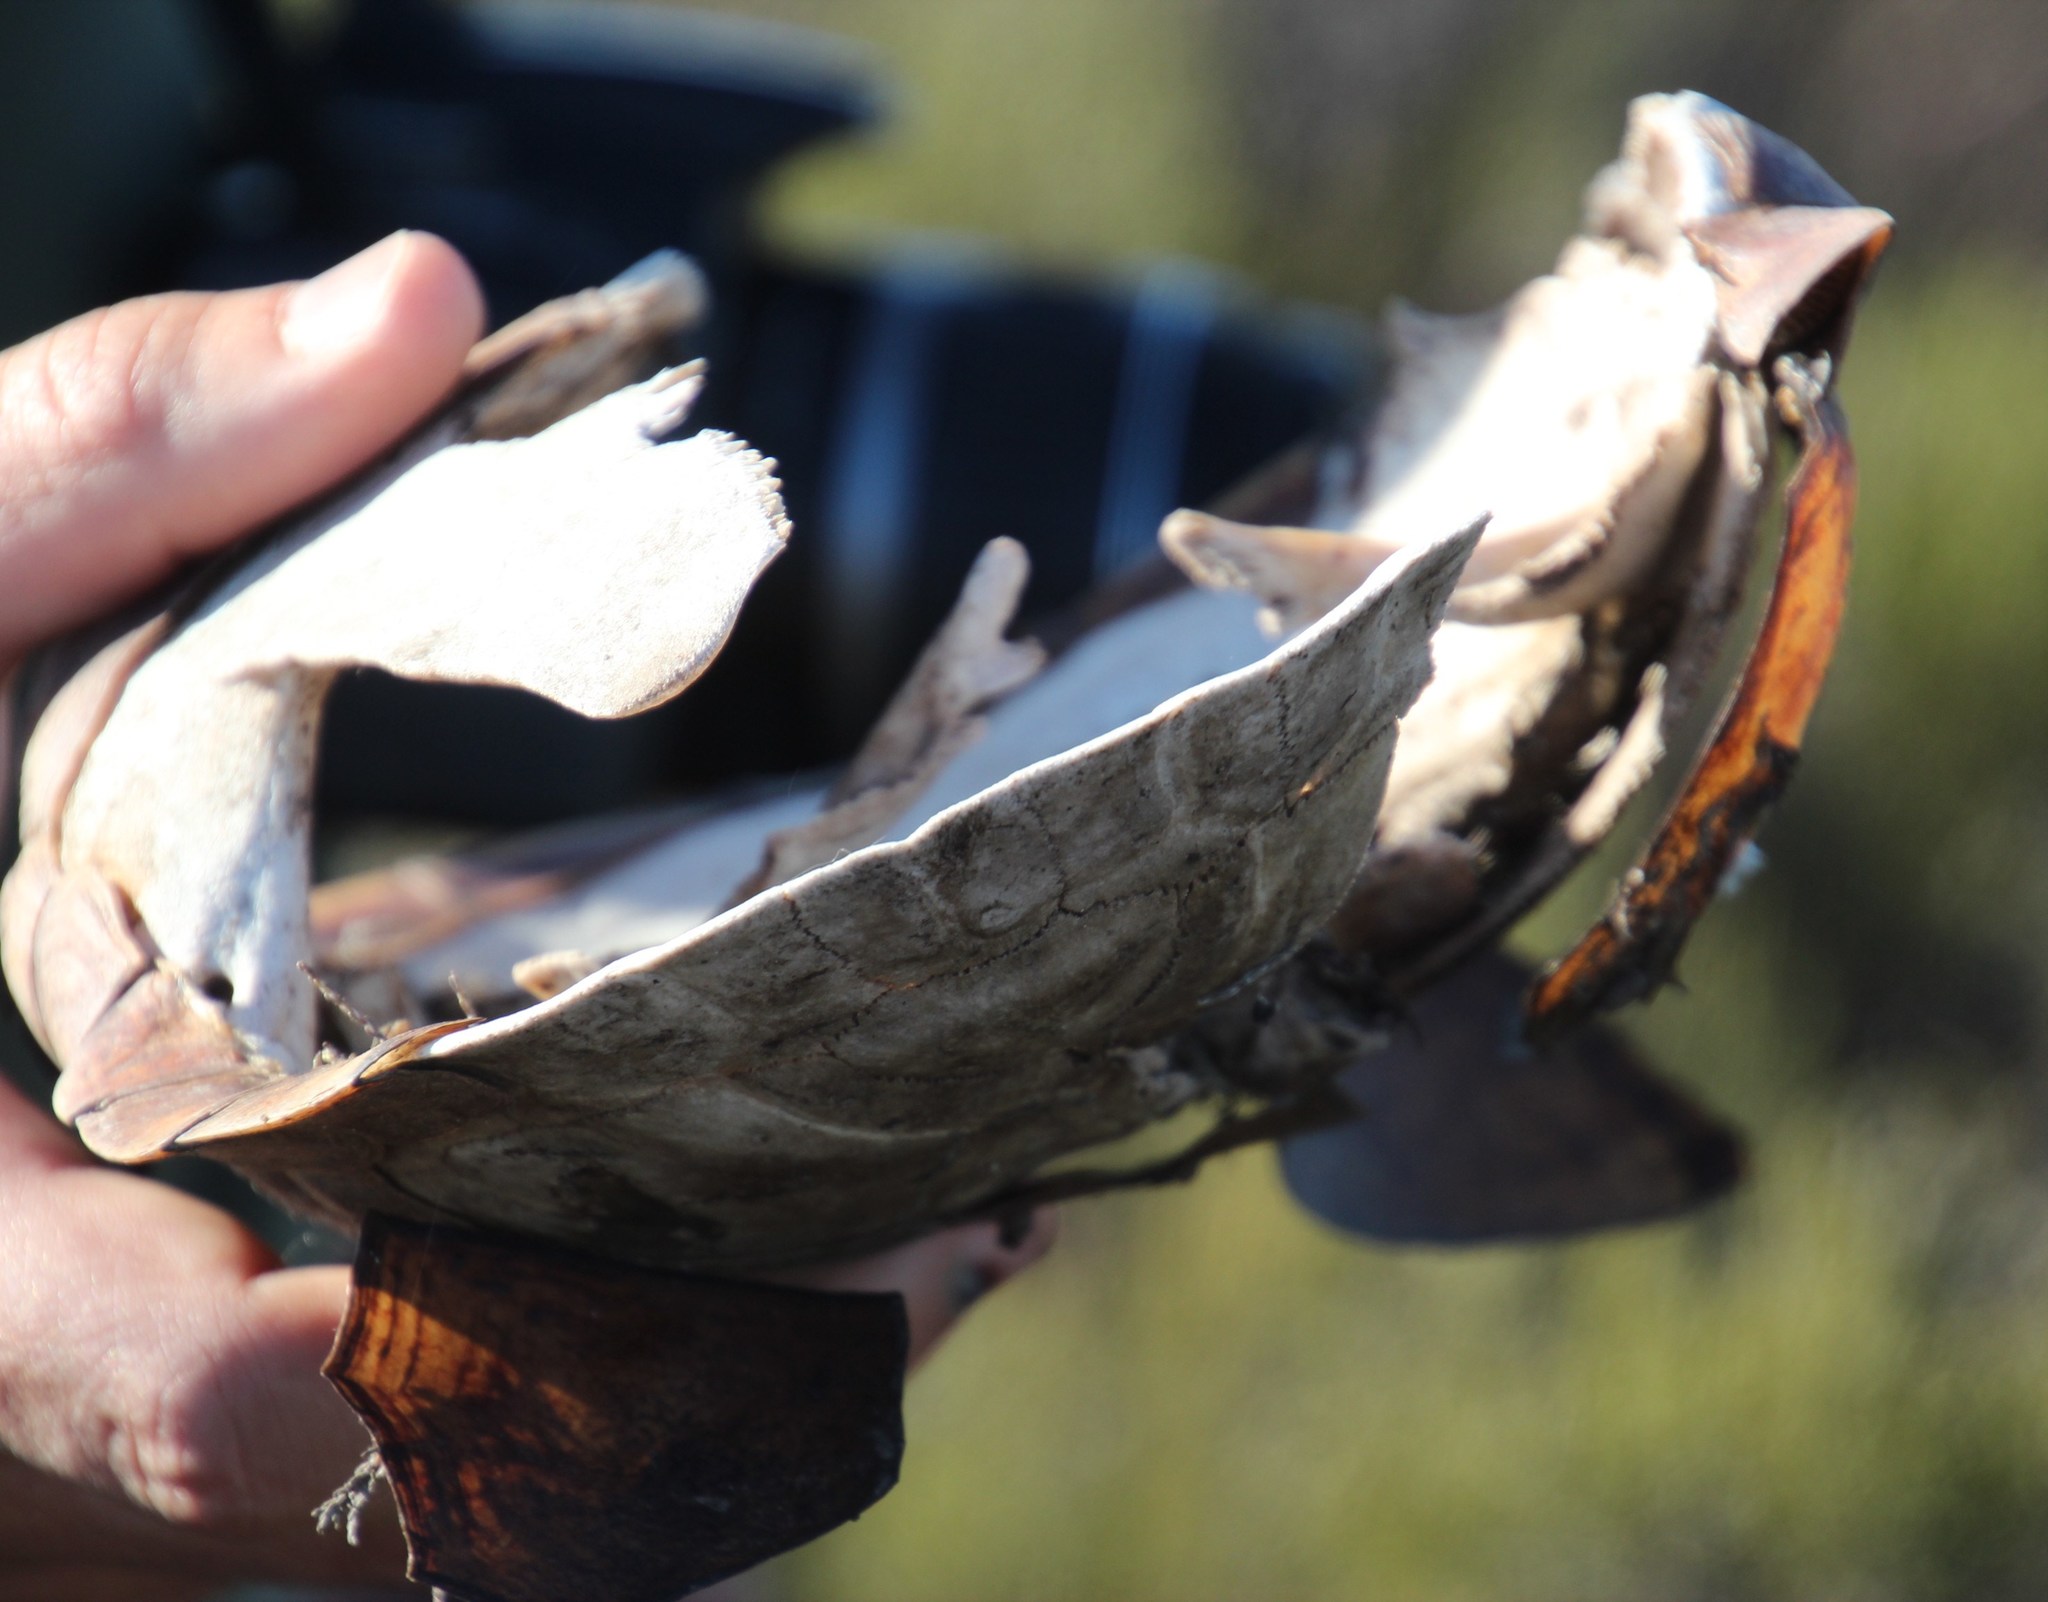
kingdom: Animalia
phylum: Chordata
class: Testudines
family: Pelomedusidae
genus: Pelomedusa
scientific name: Pelomedusa galeata
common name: South african helmeted terrapin
